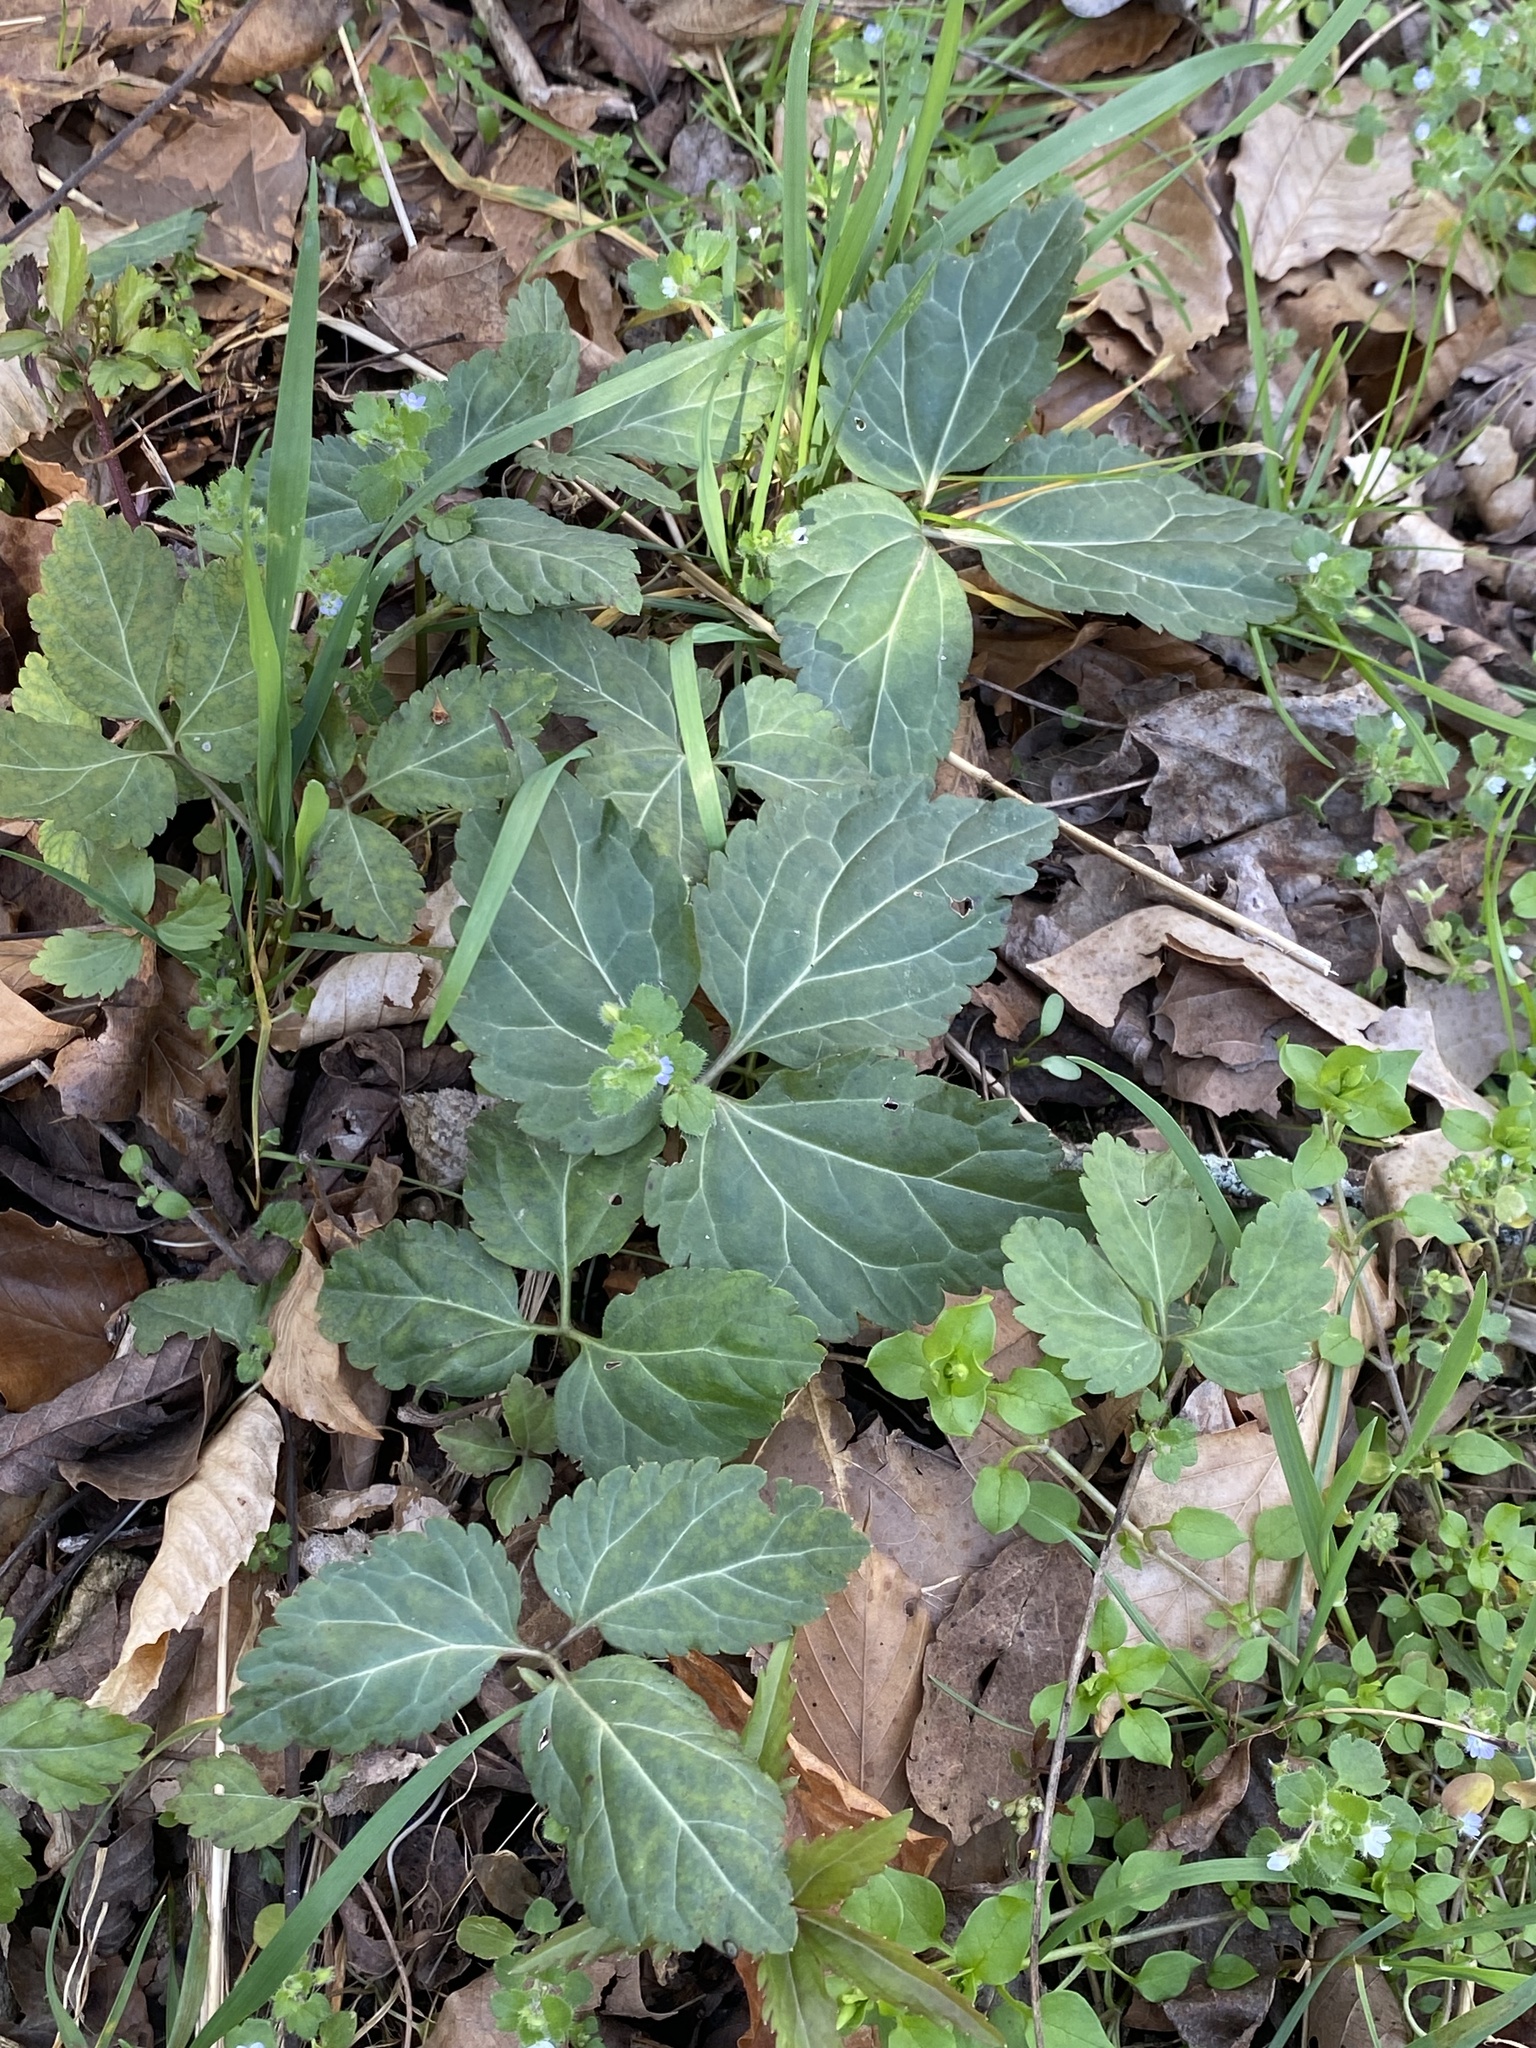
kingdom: Plantae
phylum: Tracheophyta
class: Magnoliopsida
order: Brassicales
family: Brassicaceae
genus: Cardamine
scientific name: Cardamine diphylla
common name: Broad-leaved toothwort
